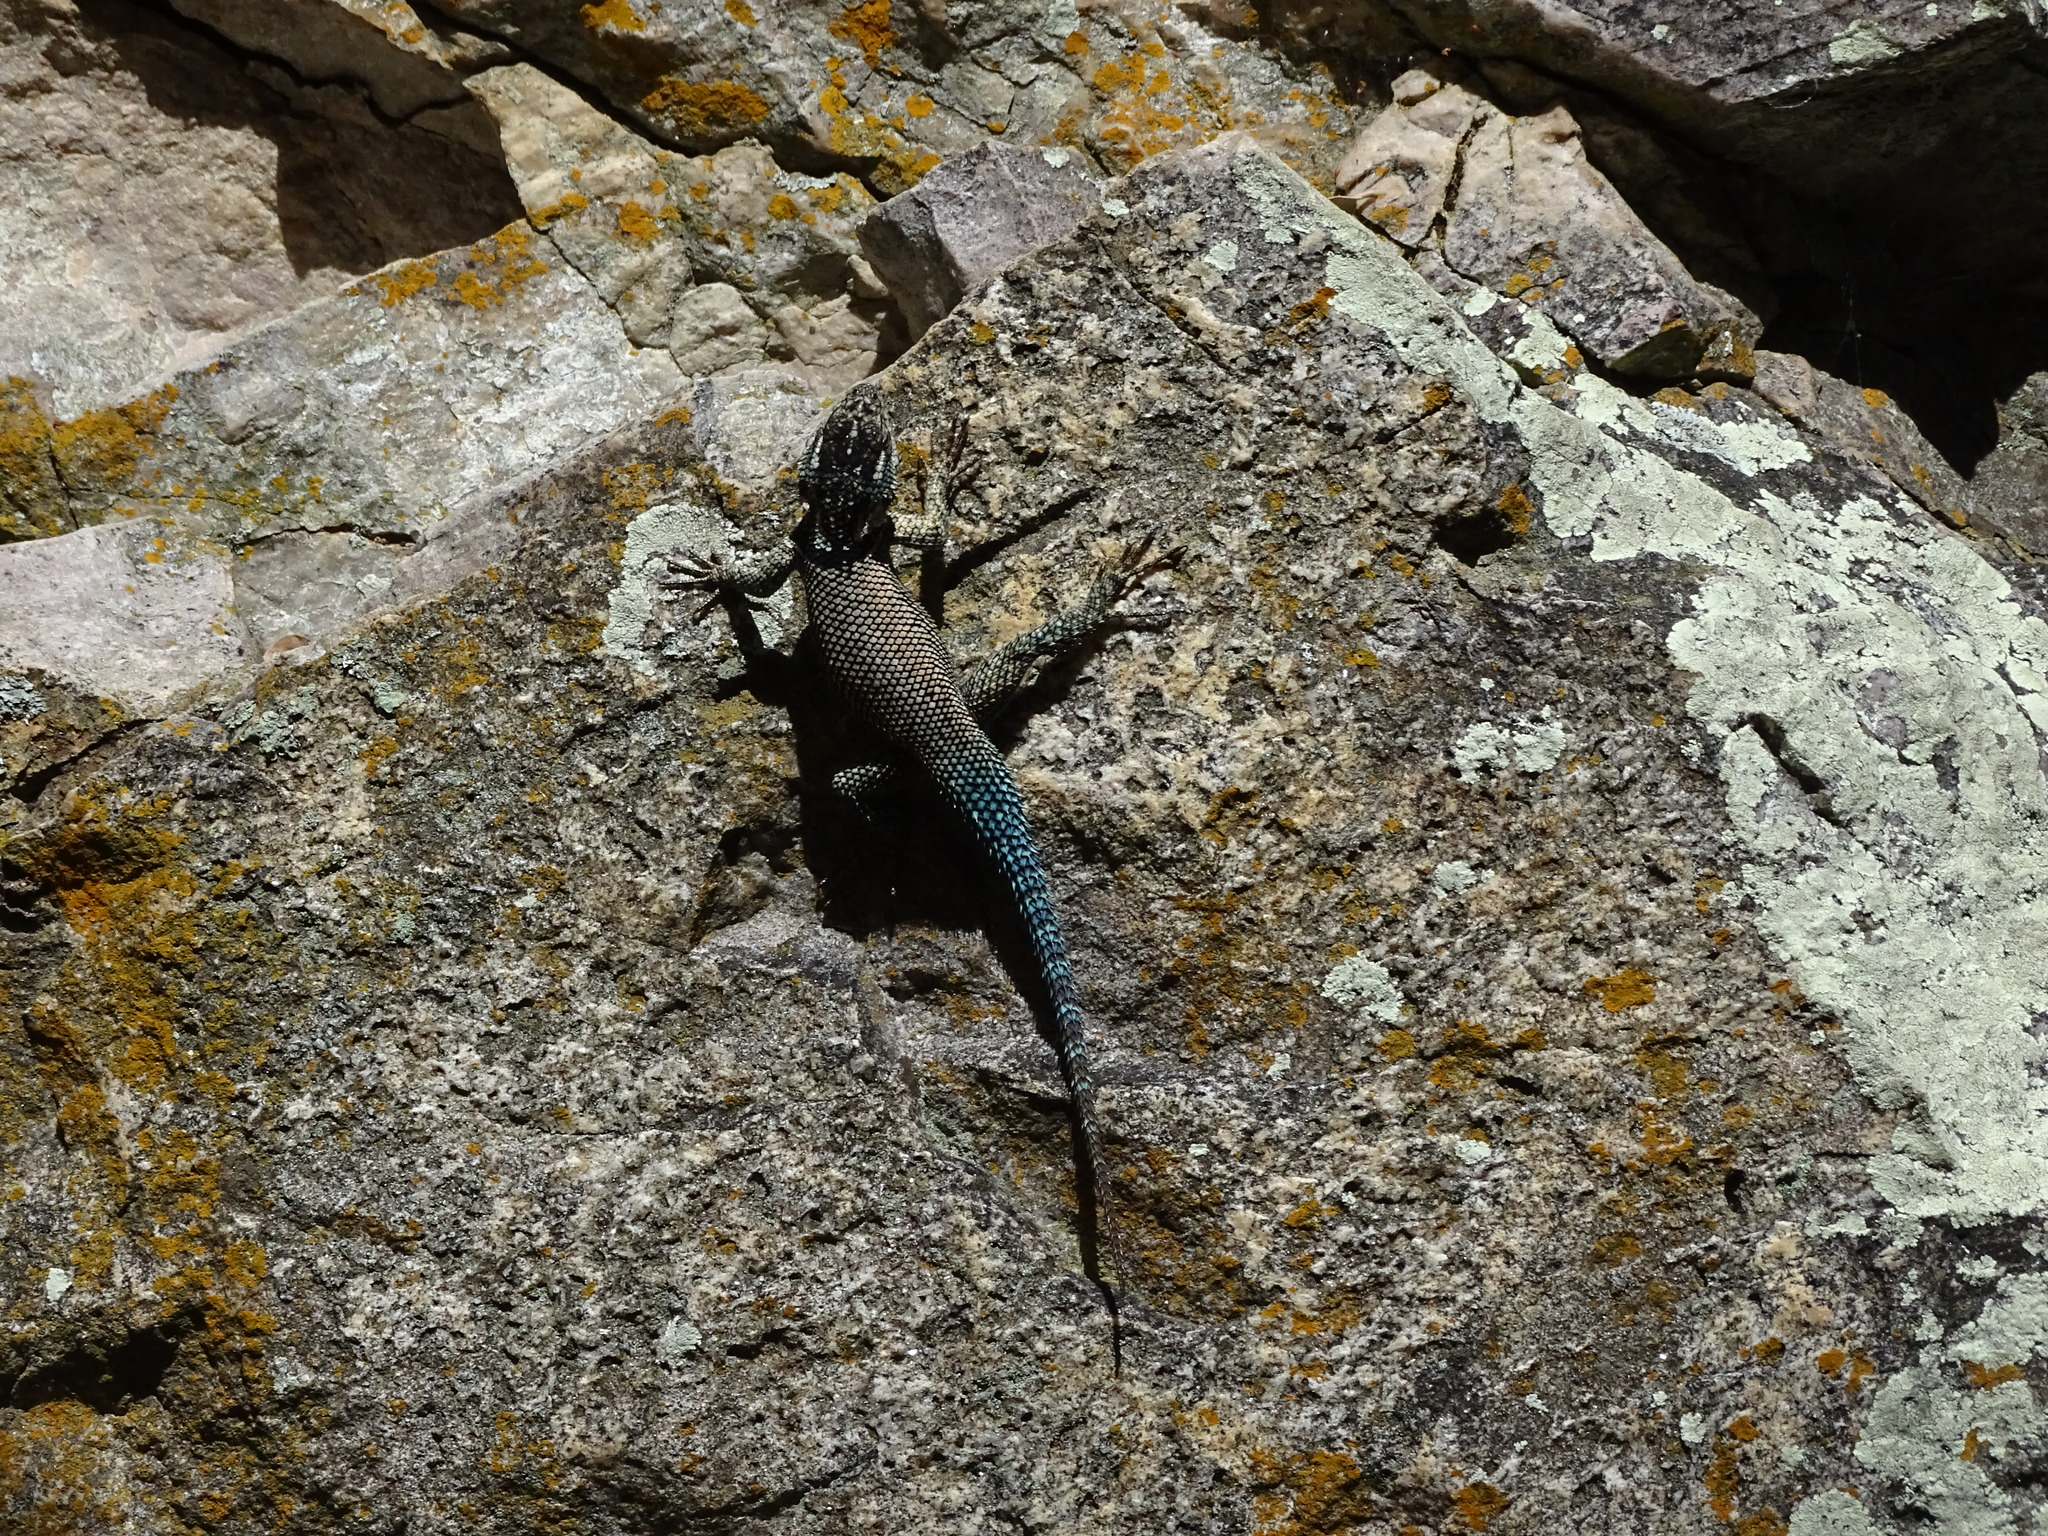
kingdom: Animalia
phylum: Chordata
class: Squamata
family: Phrynosomatidae
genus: Sceloporus
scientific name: Sceloporus jarrovii
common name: Yarrow's spiny lizard
